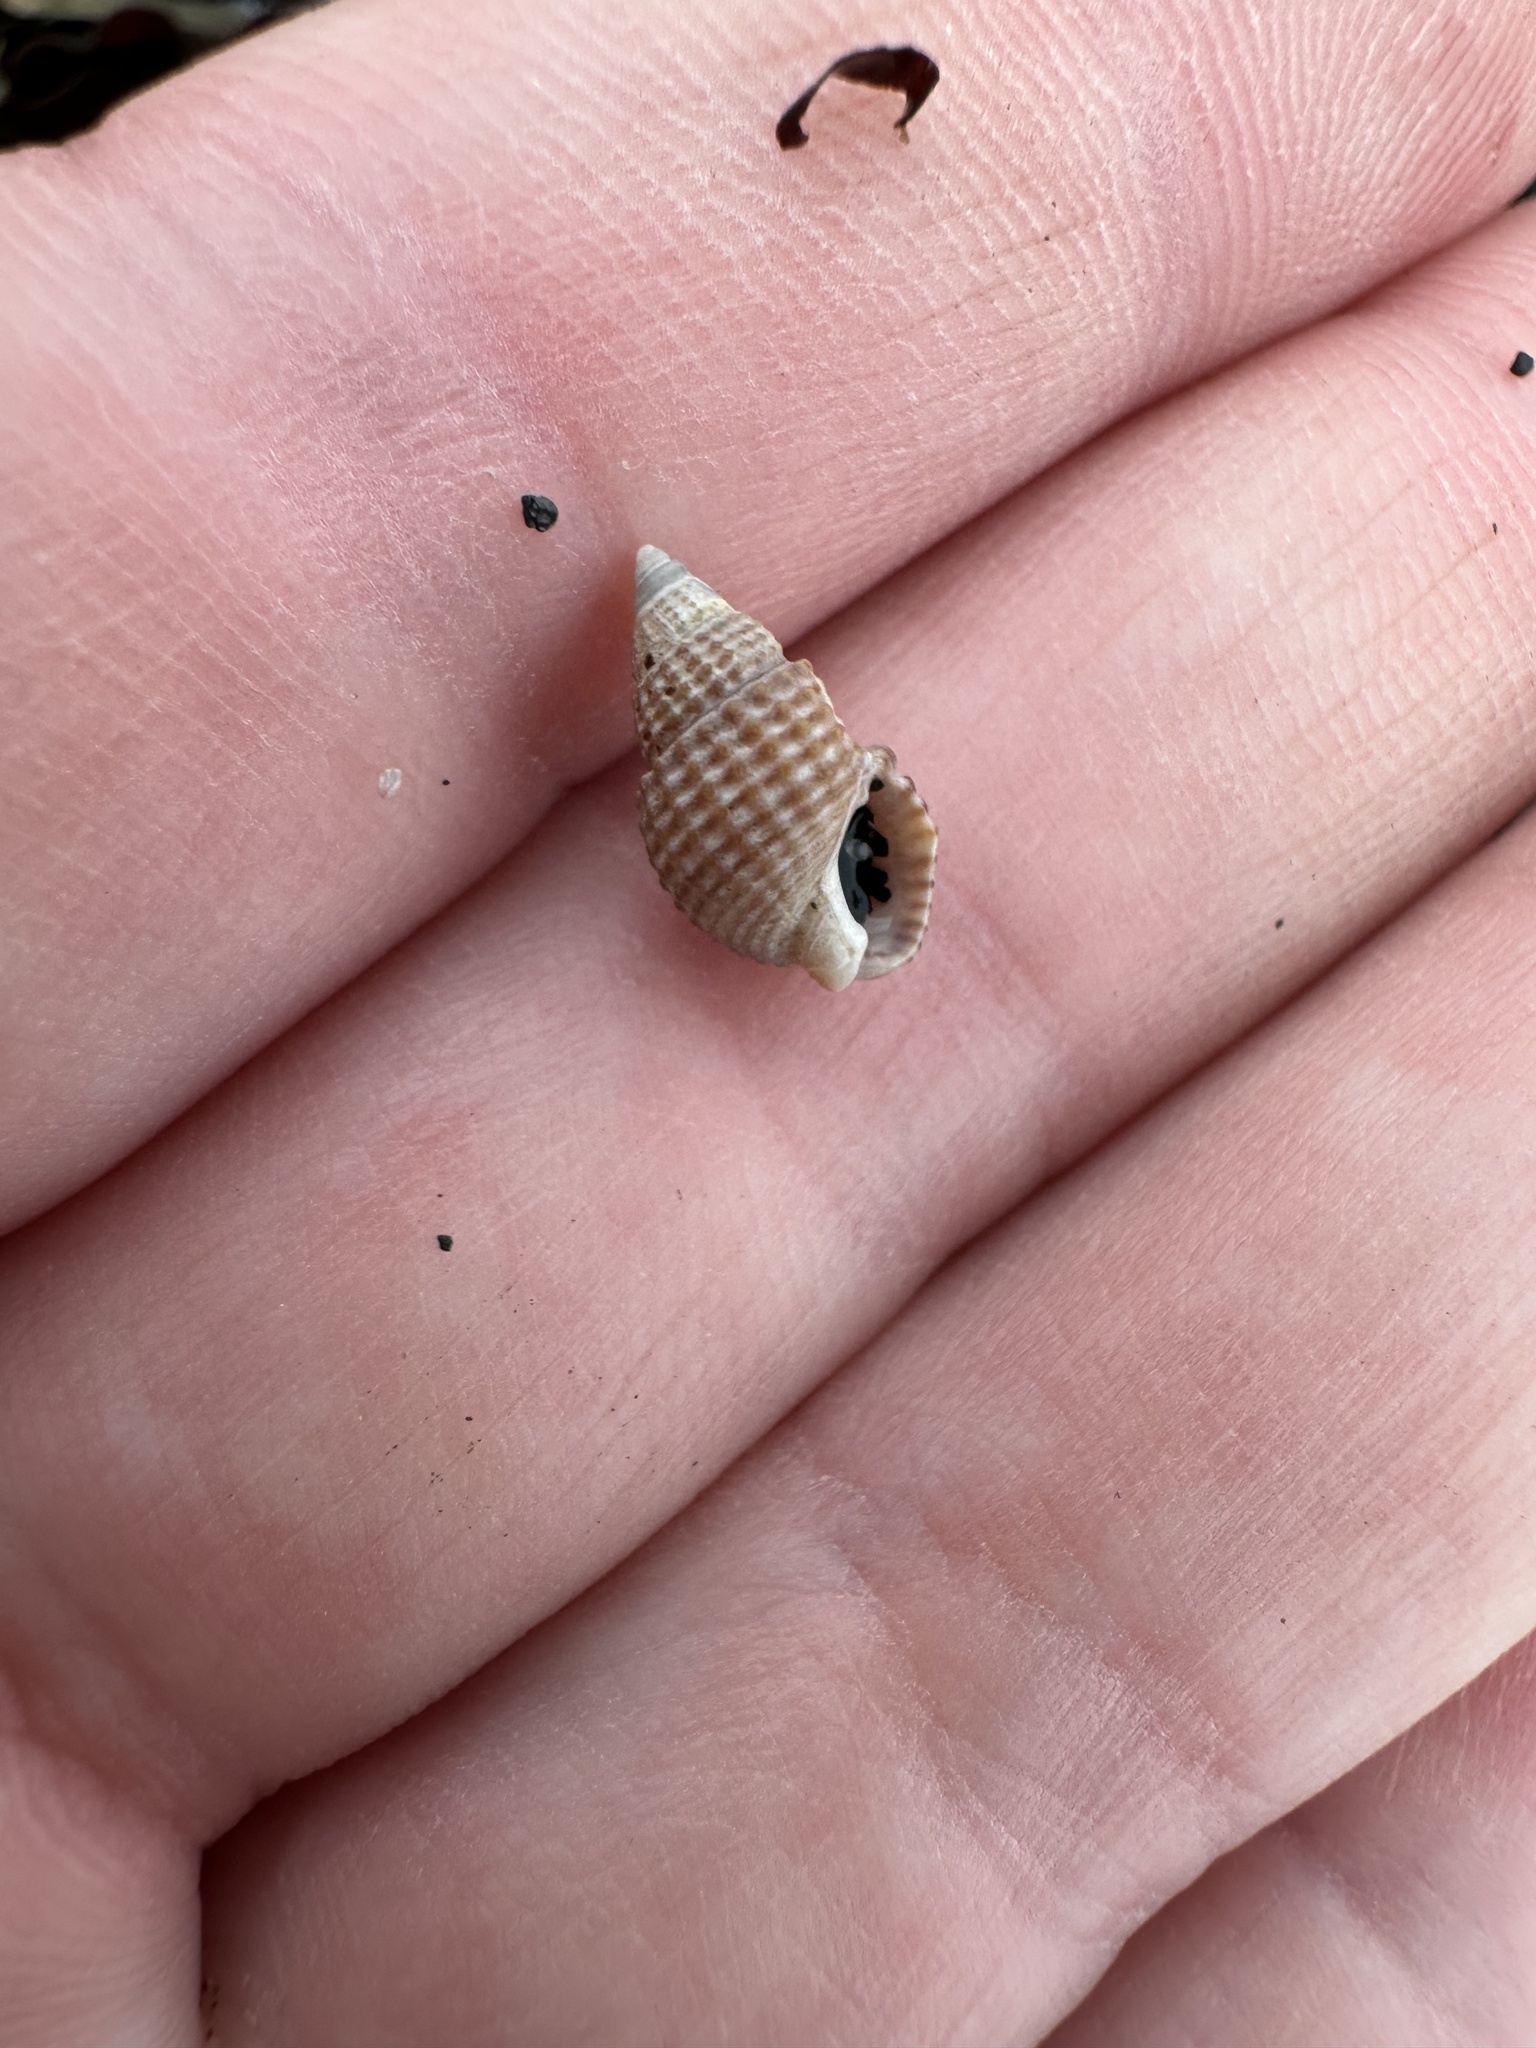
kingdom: Animalia
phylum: Mollusca
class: Gastropoda
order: Neogastropoda
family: Nassariidae
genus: Ilyanassa
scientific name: Ilyanassa trivittata
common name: Three-line mudsnail
